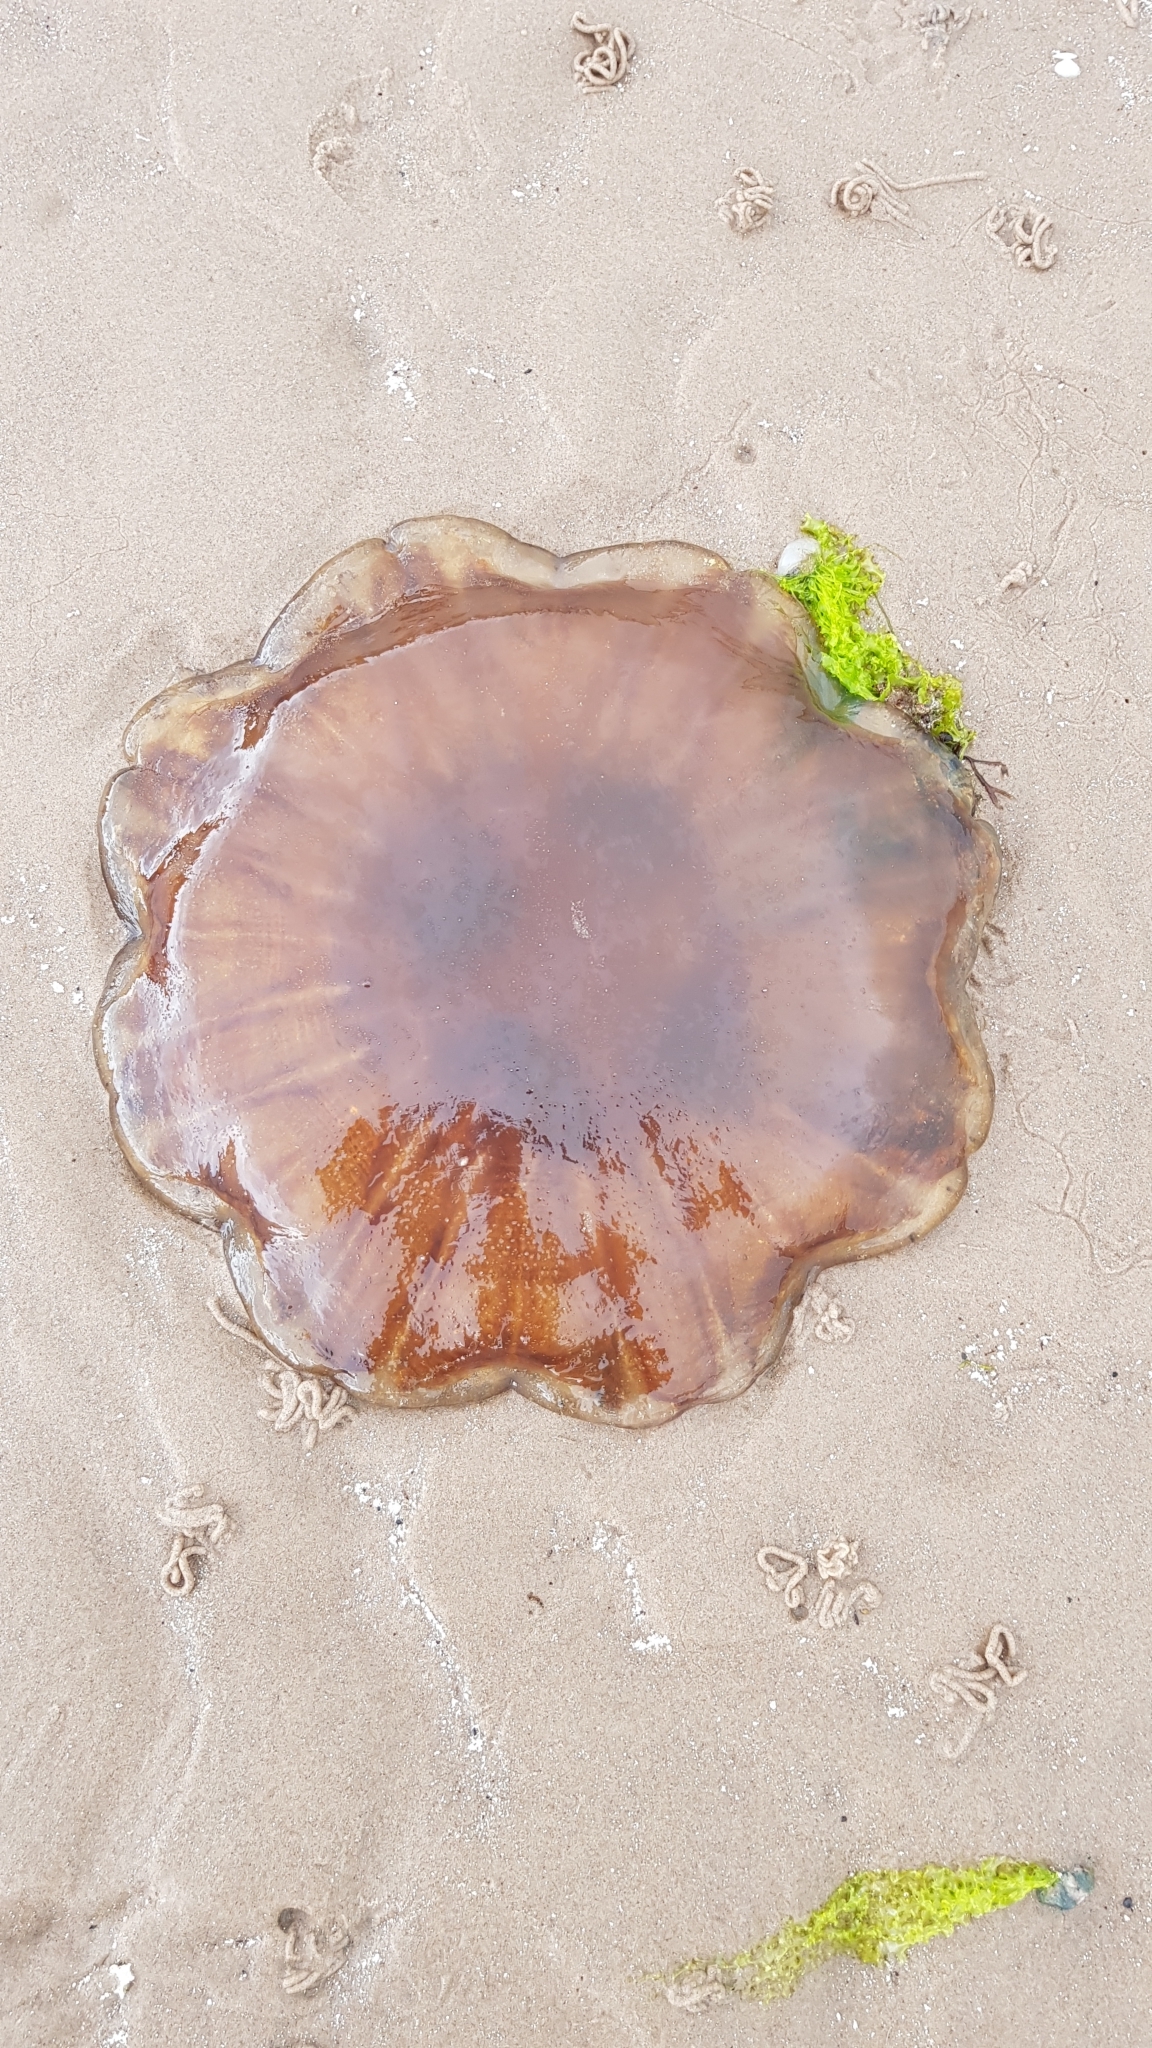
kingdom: Animalia
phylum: Cnidaria
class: Scyphozoa
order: Semaeostomeae
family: Cyaneidae
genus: Cyanea
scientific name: Cyanea capillata
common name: Lion's mane jellyfish
